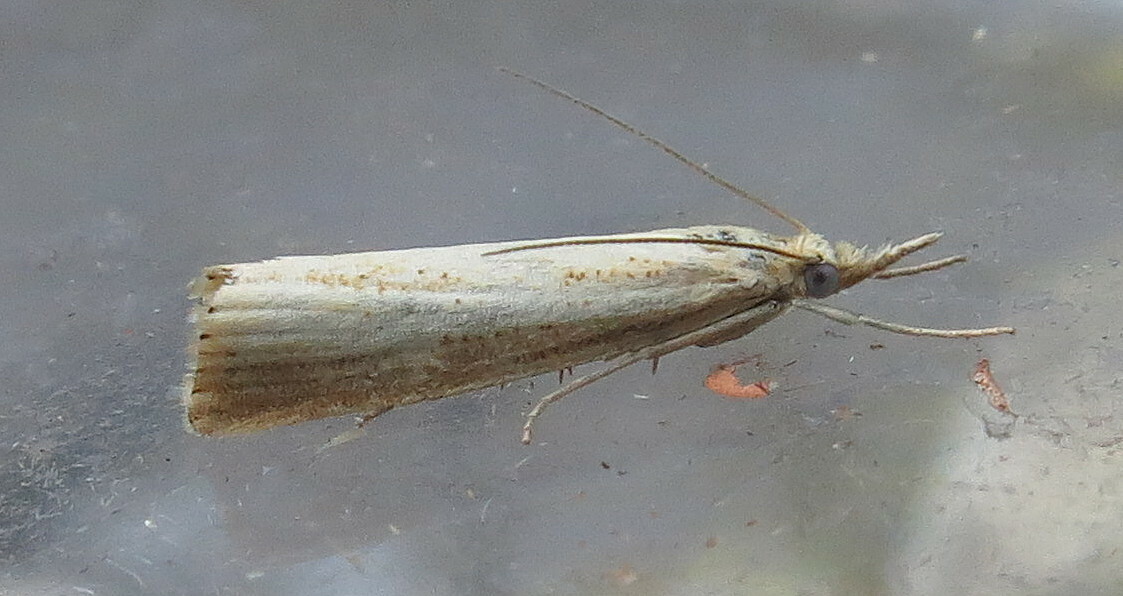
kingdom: Animalia
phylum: Arthropoda
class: Insecta
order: Lepidoptera
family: Crambidae
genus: Agriphila
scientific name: Agriphila straminella
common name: Straw grass-veneer
